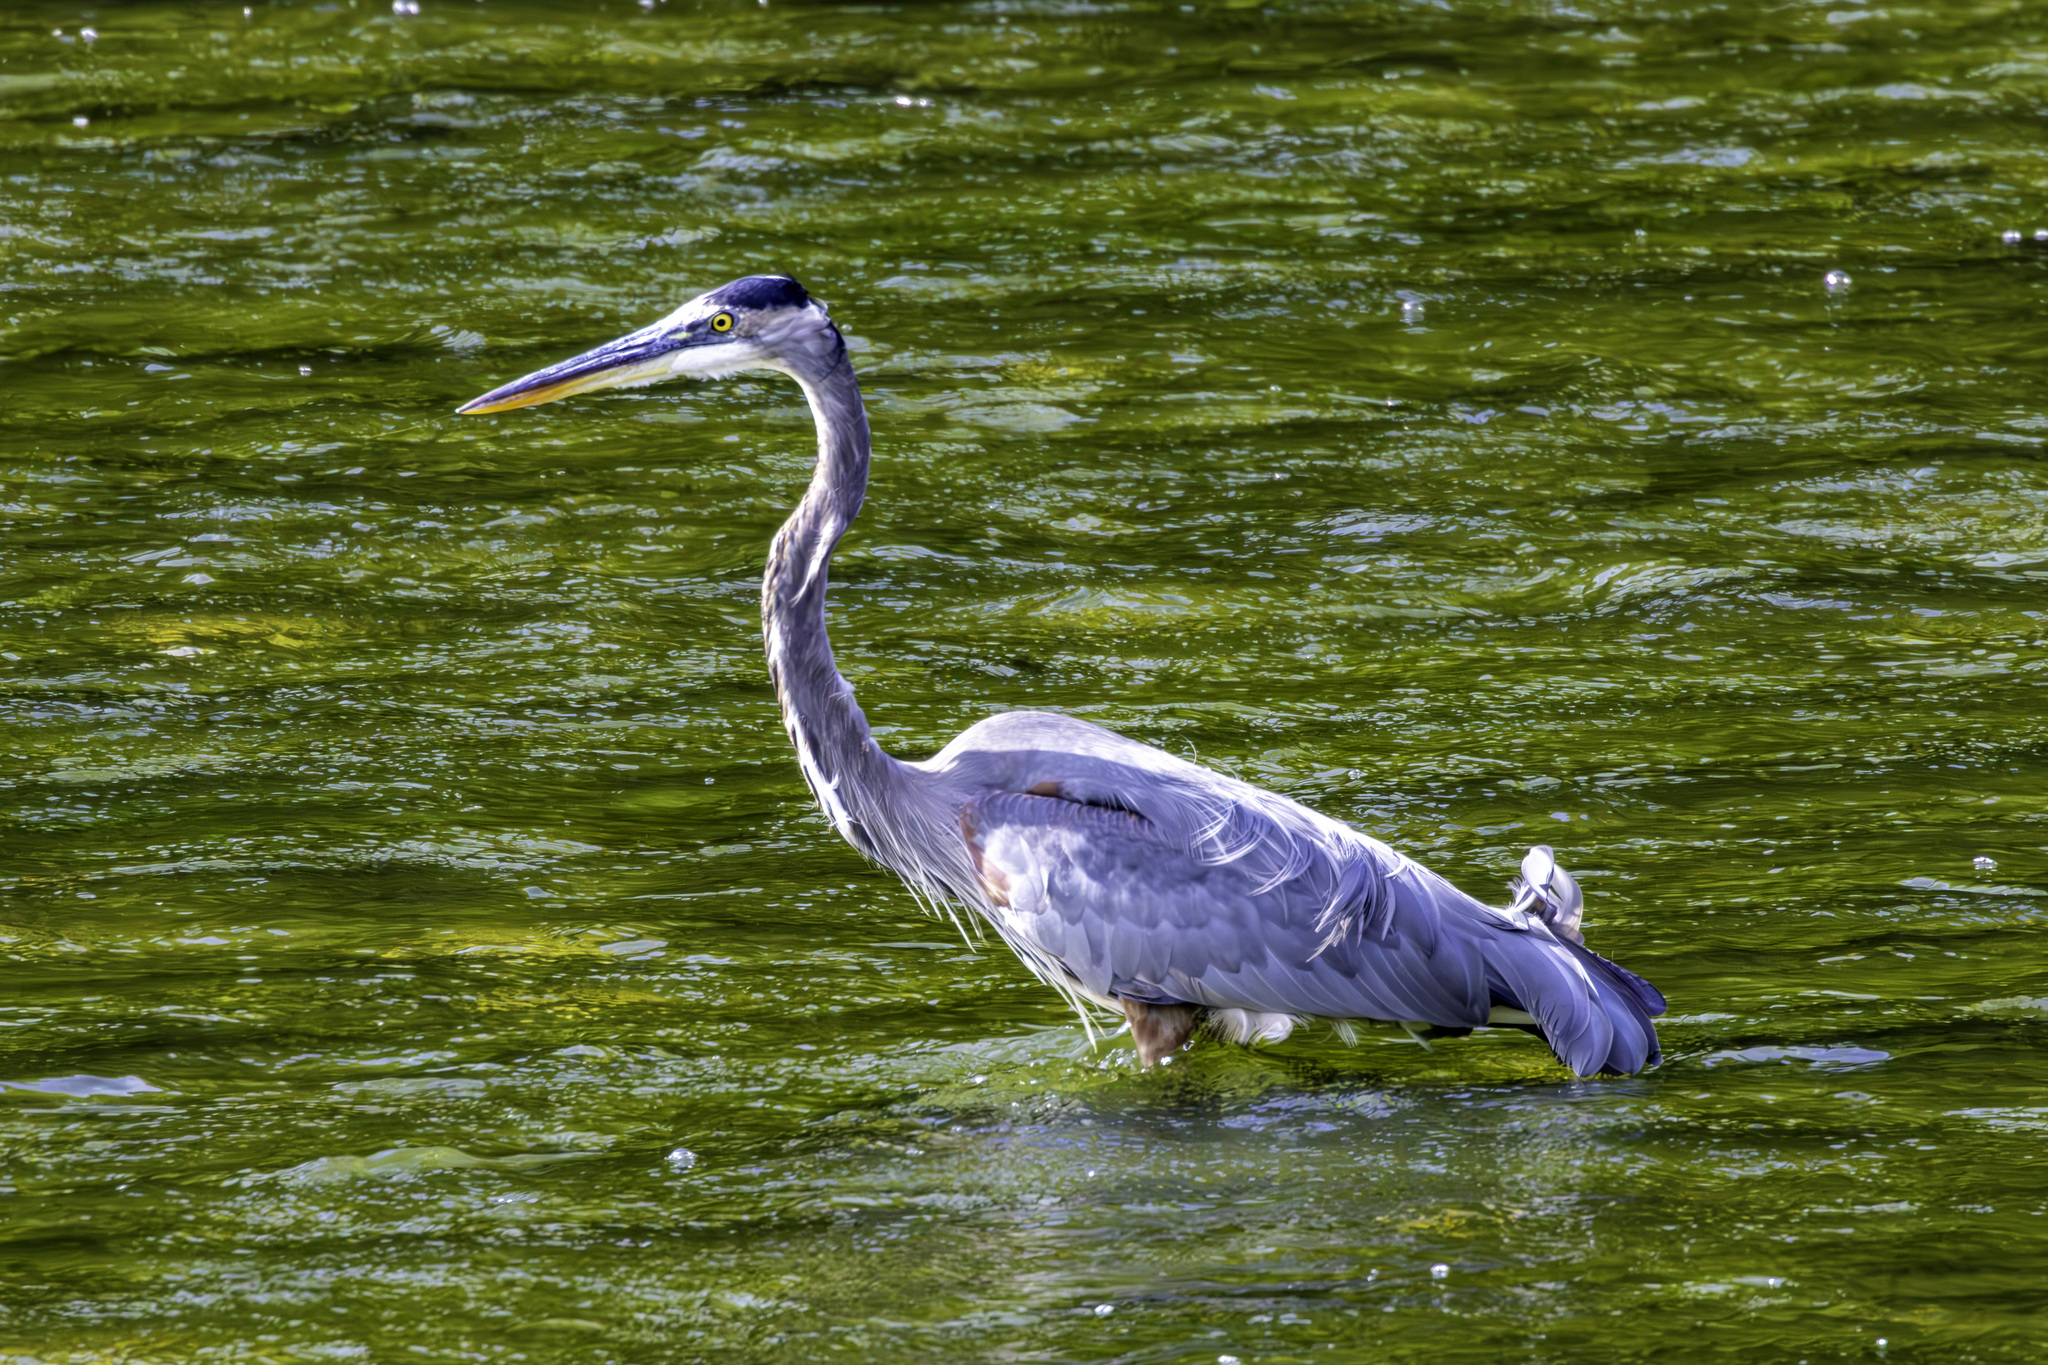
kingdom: Animalia
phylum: Chordata
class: Aves
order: Pelecaniformes
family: Ardeidae
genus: Ardea
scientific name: Ardea herodias
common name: Great blue heron
